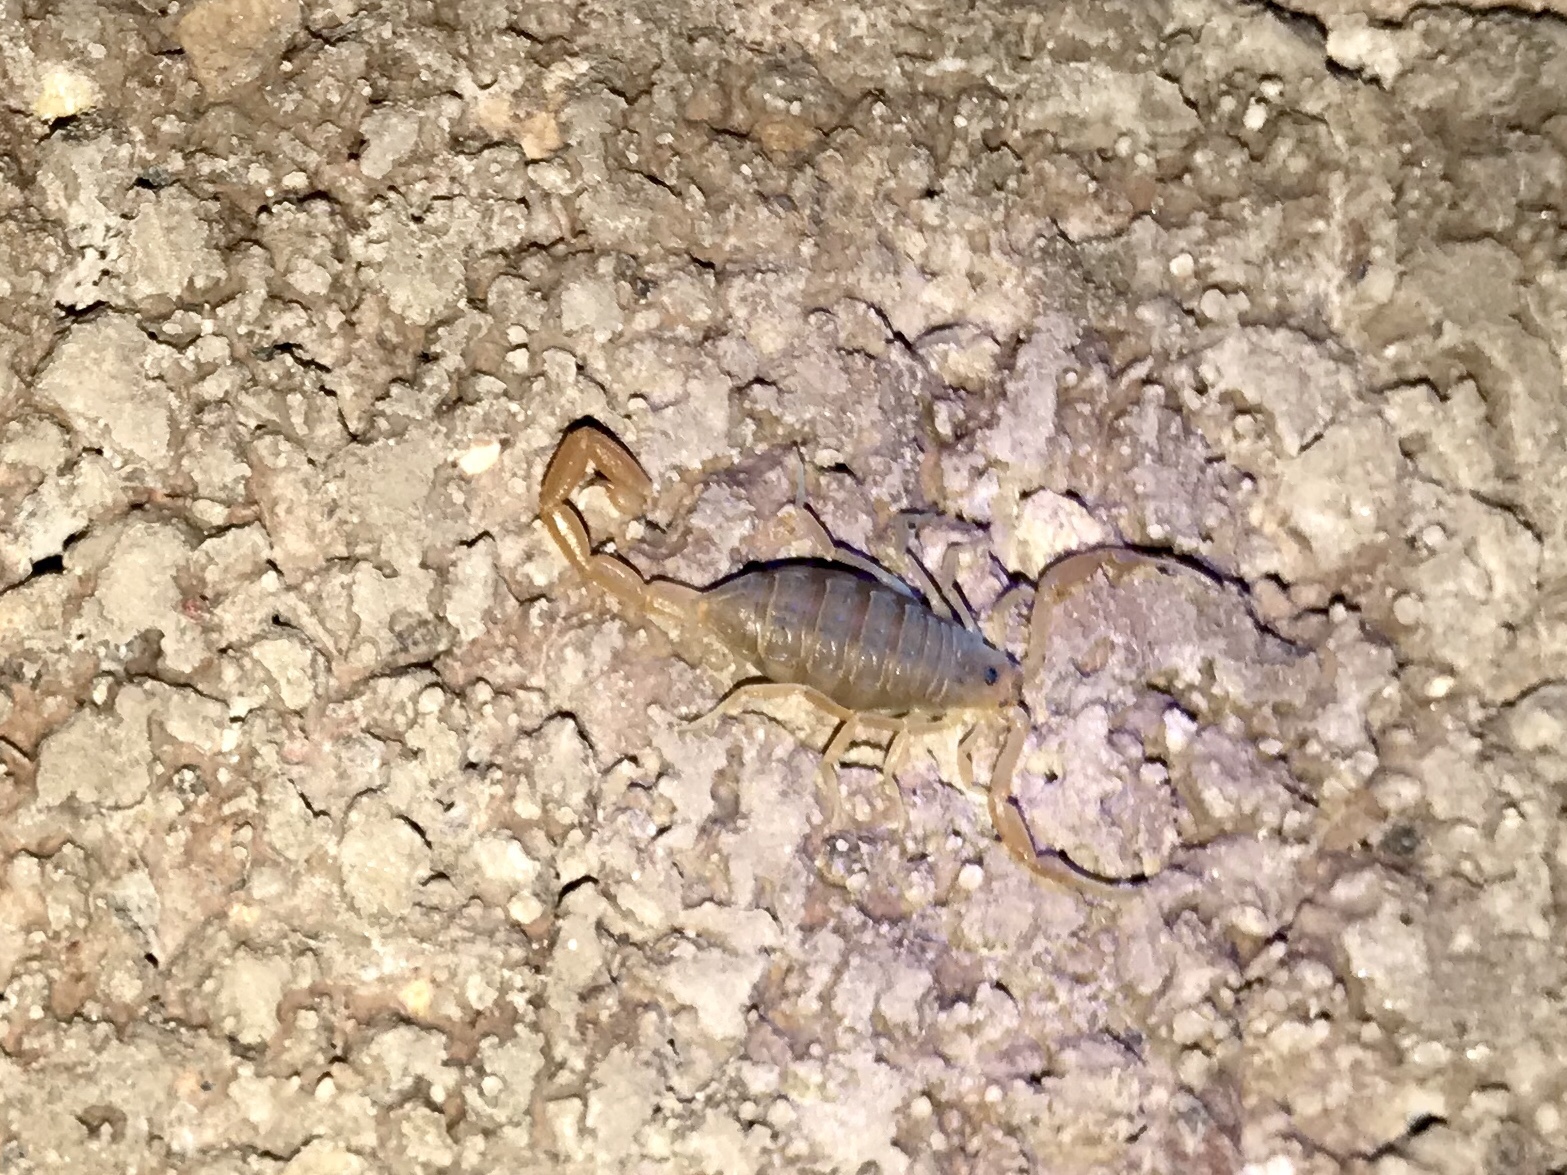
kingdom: Animalia
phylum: Arthropoda
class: Arachnida
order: Scorpiones
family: Buthidae
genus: Centruroides
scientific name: Centruroides sculpturatus
